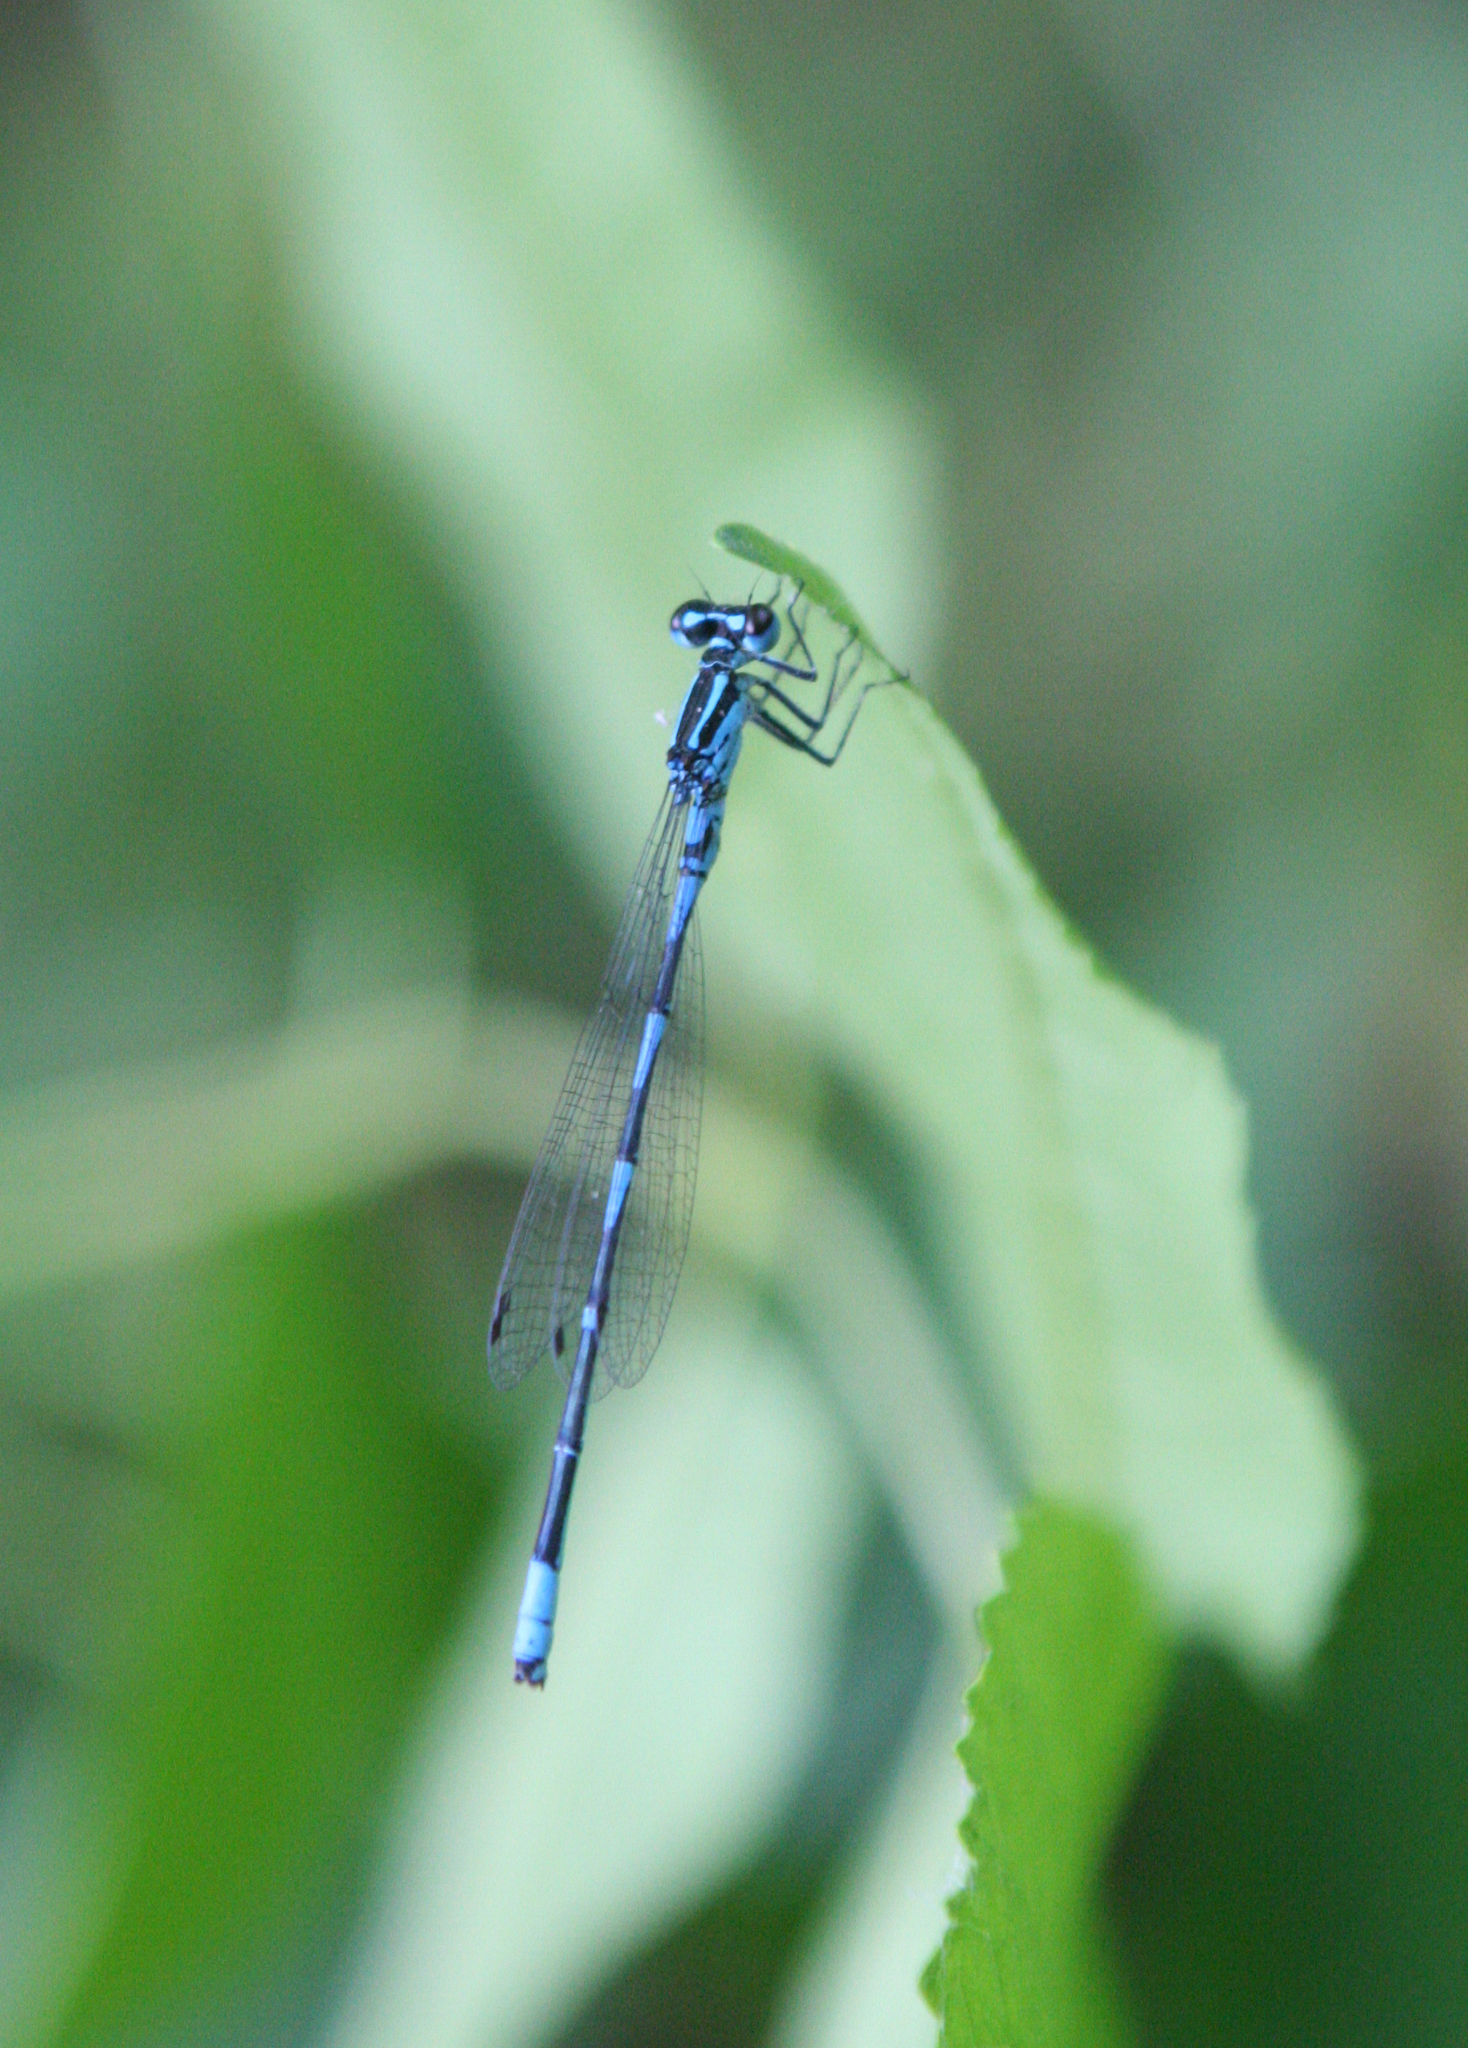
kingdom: Animalia
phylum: Arthropoda
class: Insecta
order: Odonata
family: Coenagrionidae
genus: Coenagrion
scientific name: Coenagrion ponticum
